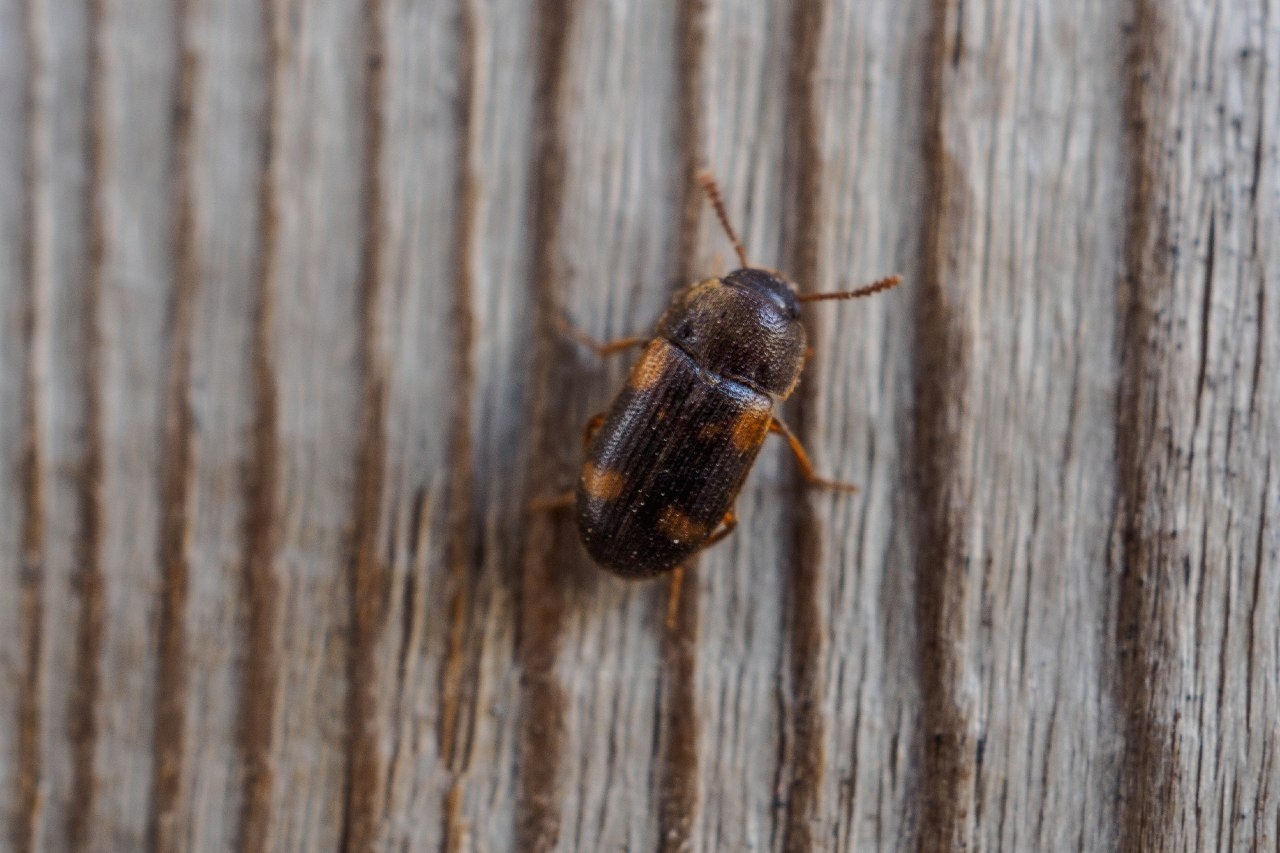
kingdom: Animalia
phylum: Arthropoda
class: Insecta
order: Coleoptera
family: Mycetophagidae
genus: Mycetophagus
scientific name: Mycetophagus quadriguttatus
